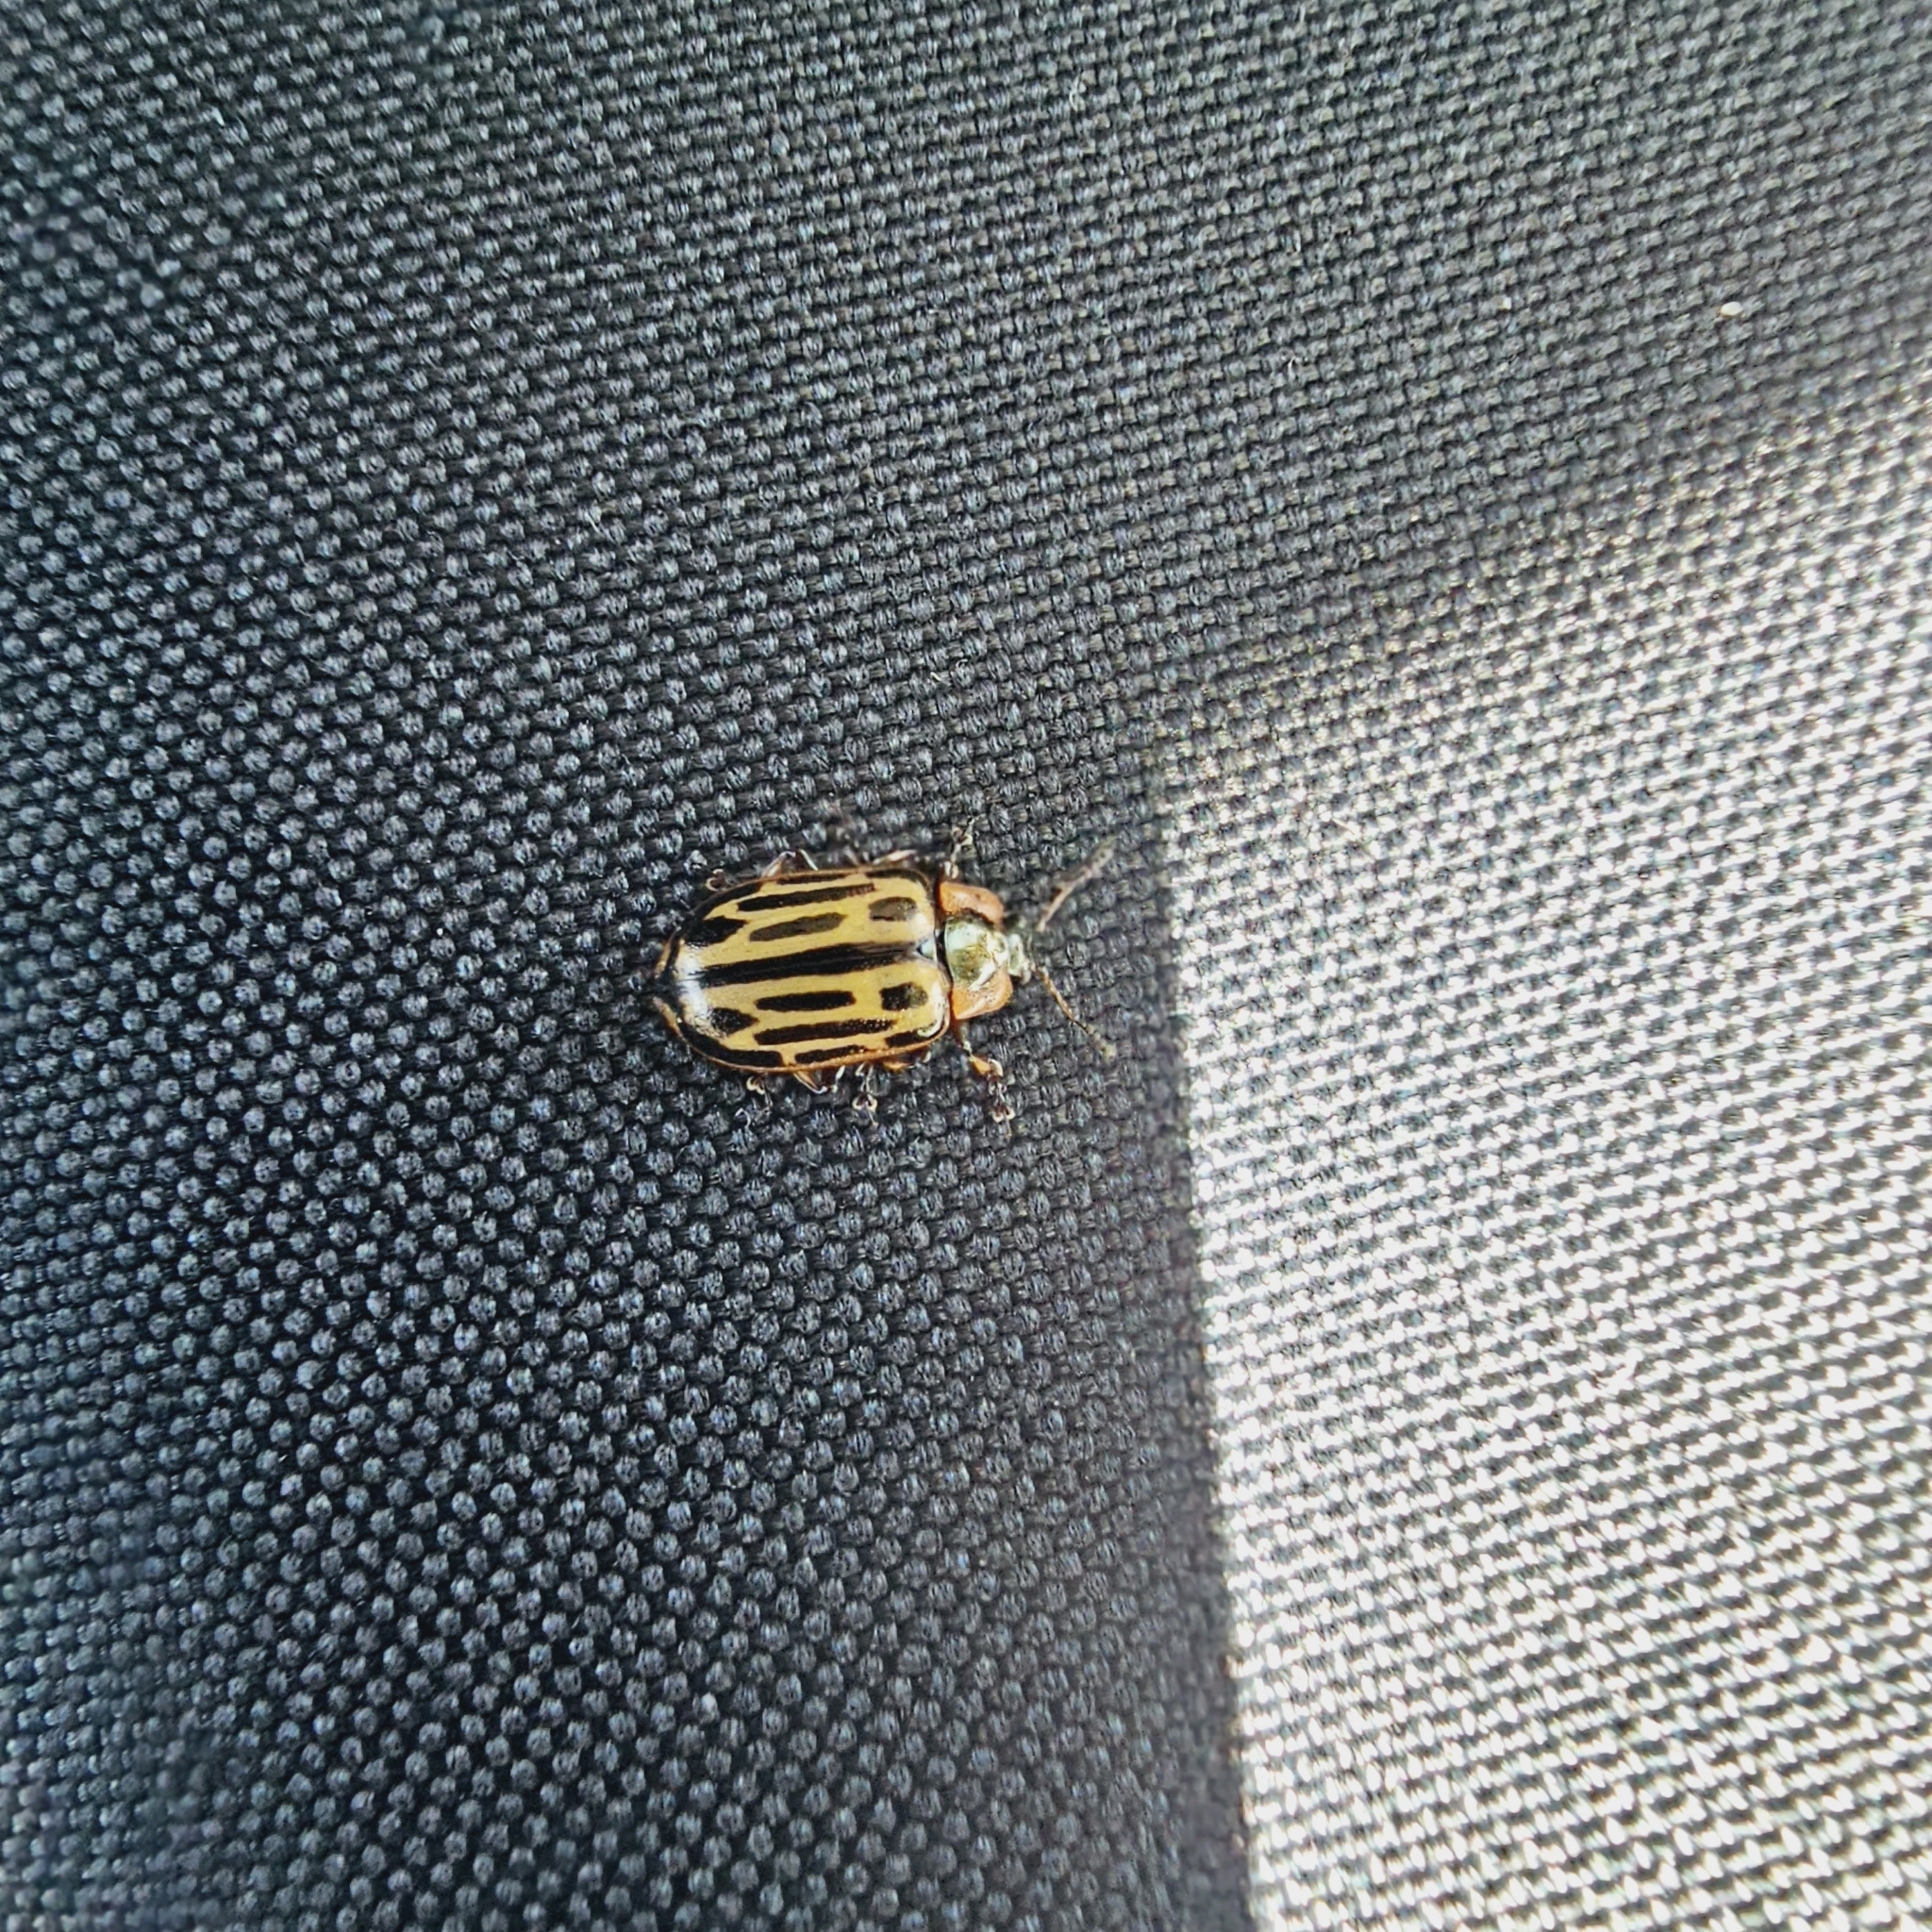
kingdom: Animalia
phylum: Arthropoda
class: Insecta
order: Coleoptera
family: Chrysomelidae
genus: Aethiopocassis
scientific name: Aethiopocassis scripta
